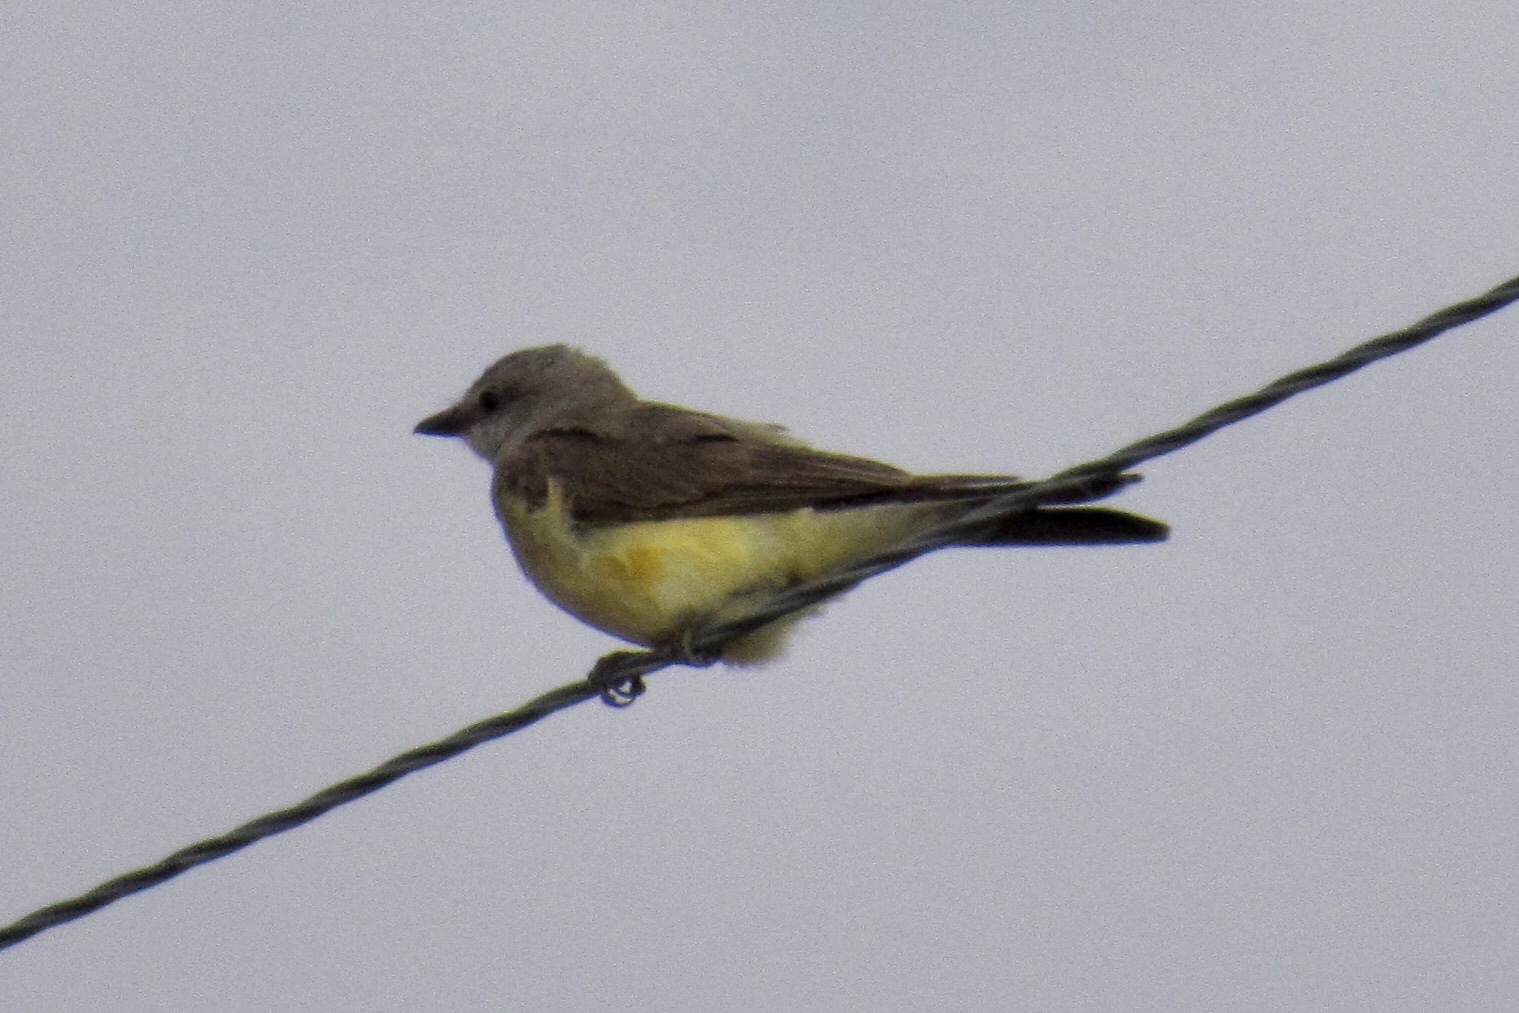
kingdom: Animalia
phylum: Chordata
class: Aves
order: Passeriformes
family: Tyrannidae
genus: Tyrannus
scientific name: Tyrannus verticalis
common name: Western kingbird
